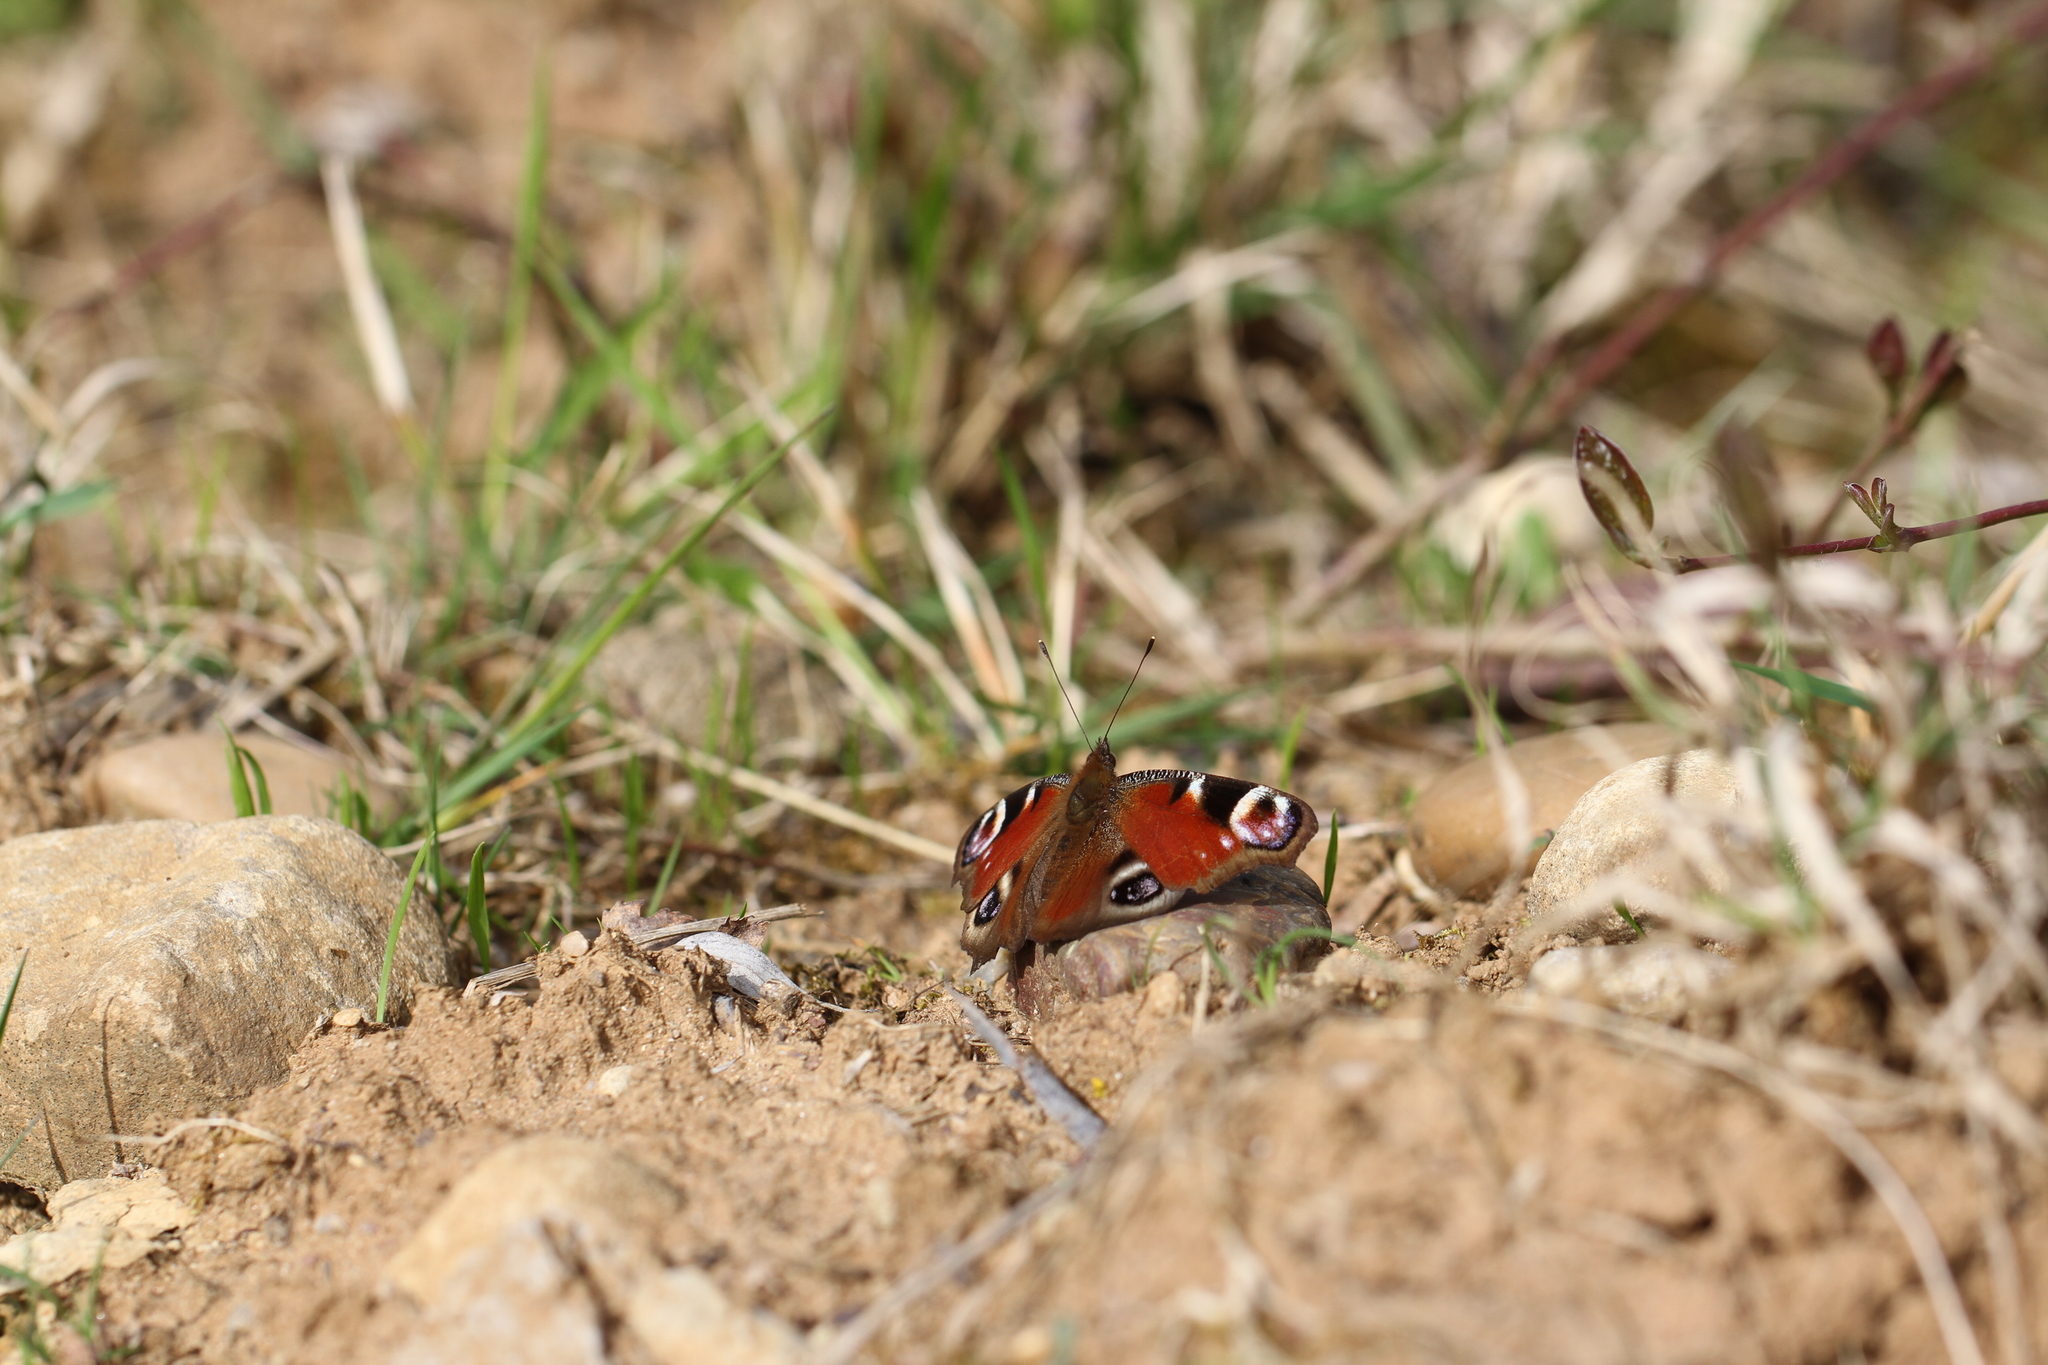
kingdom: Animalia
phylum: Arthropoda
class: Insecta
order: Lepidoptera
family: Nymphalidae
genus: Aglais
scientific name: Aglais io
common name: Peacock
